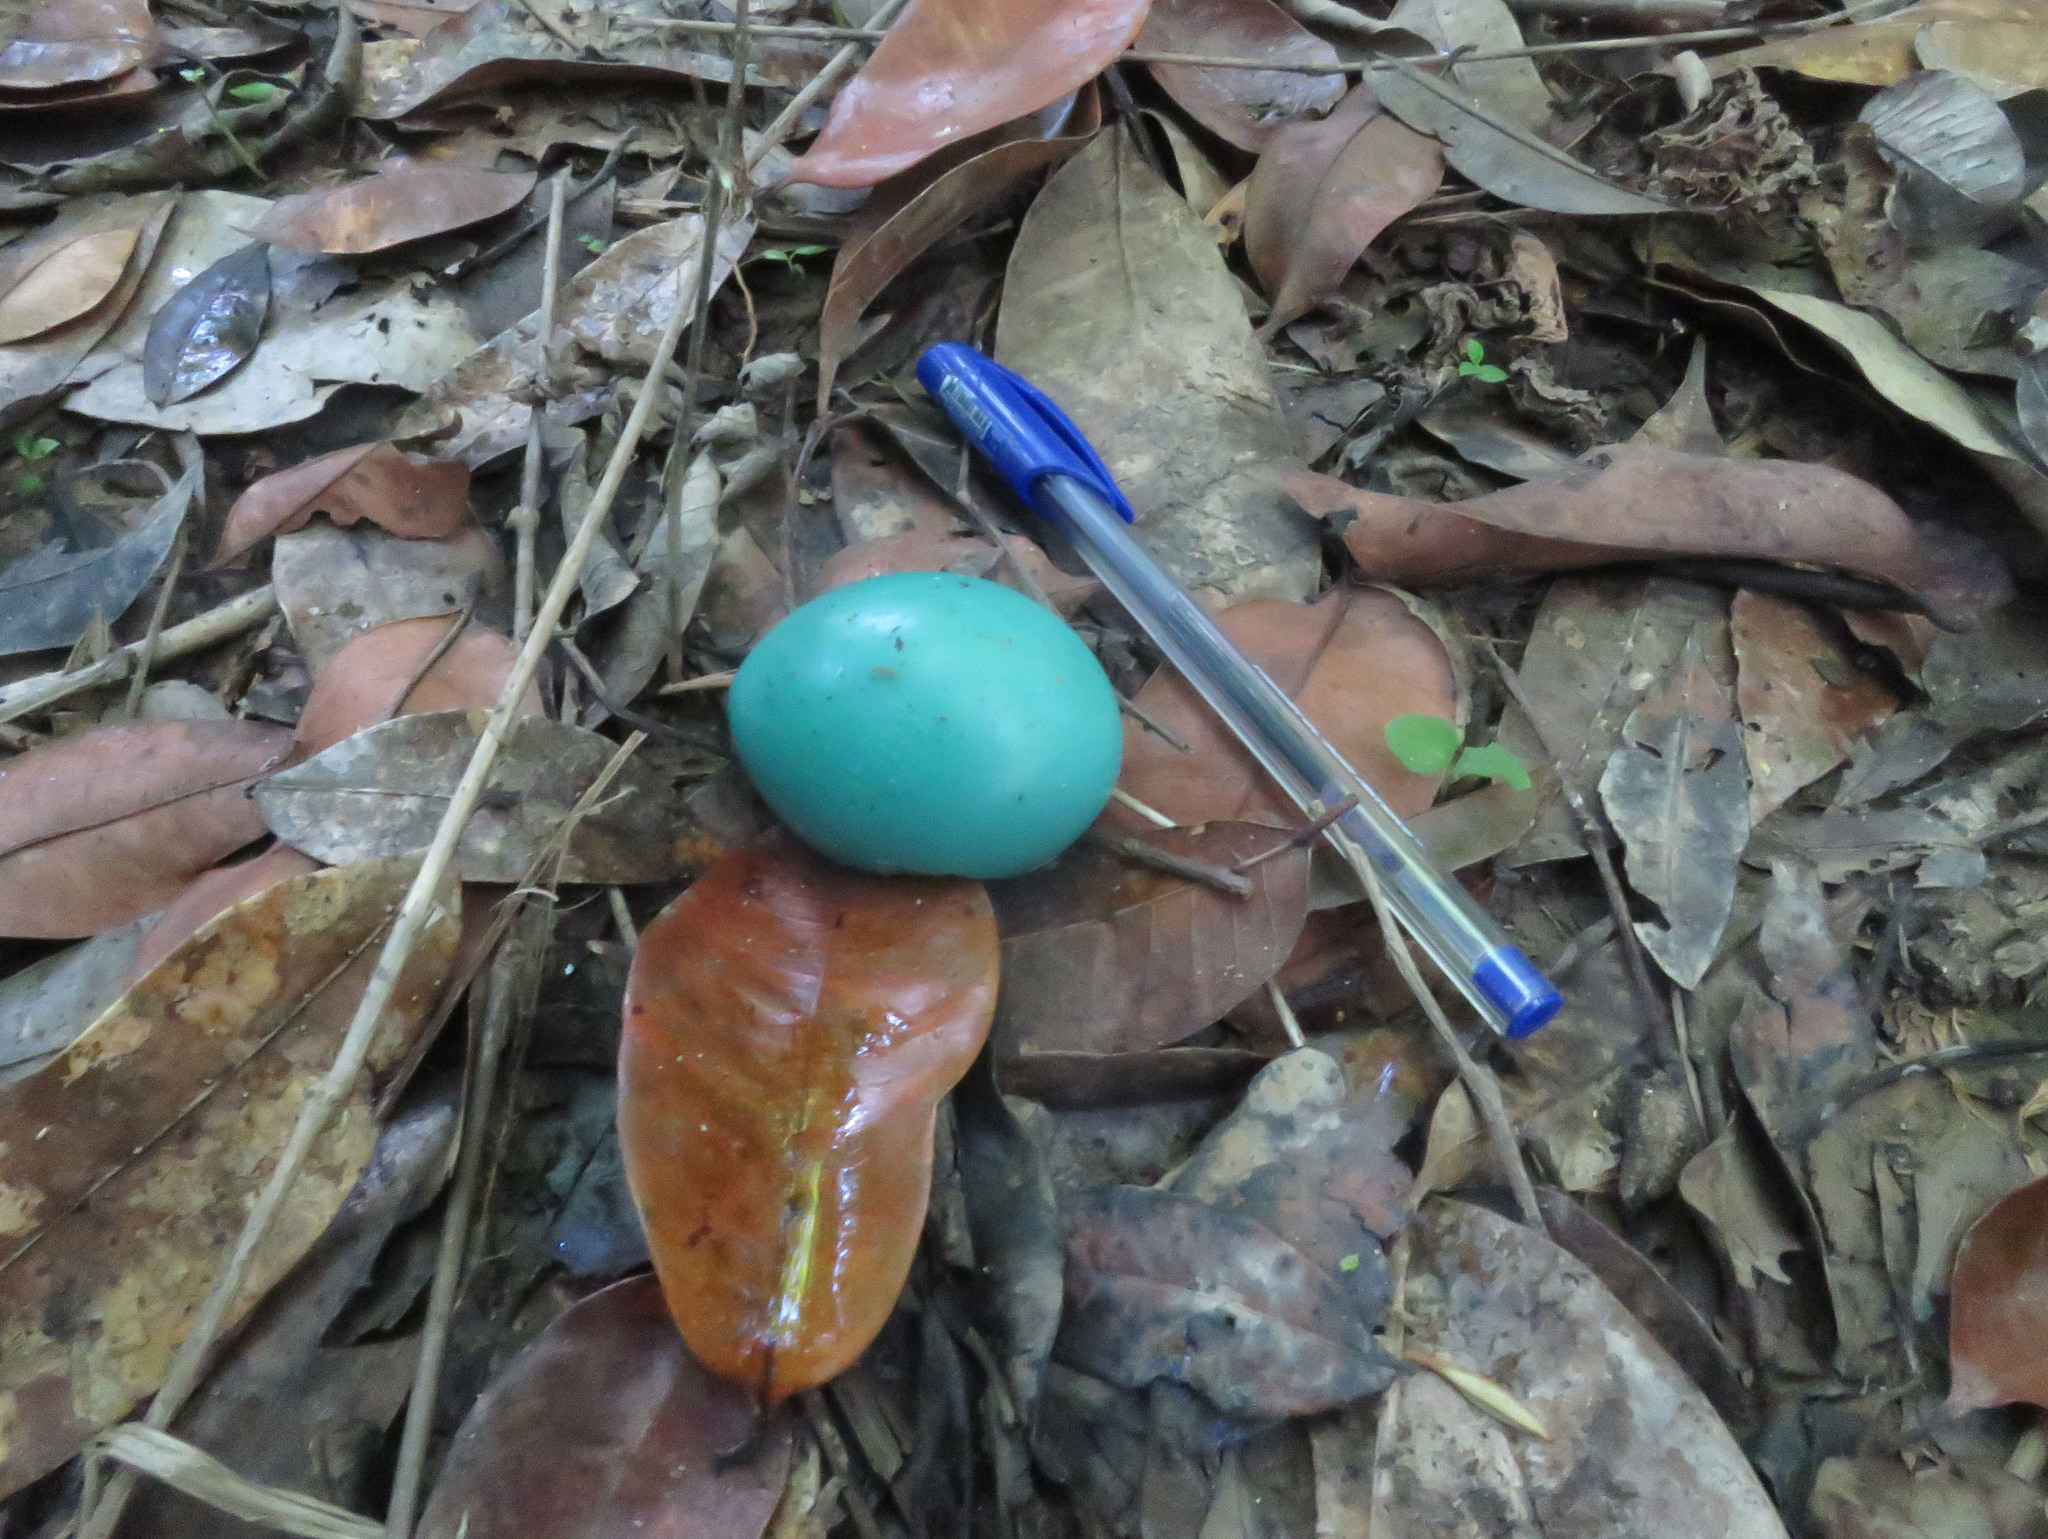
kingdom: Animalia
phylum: Chordata
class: Aves
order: Tinamiformes
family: Tinamidae
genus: Tinamus
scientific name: Tinamus guttatus
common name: White-throated tinamou
